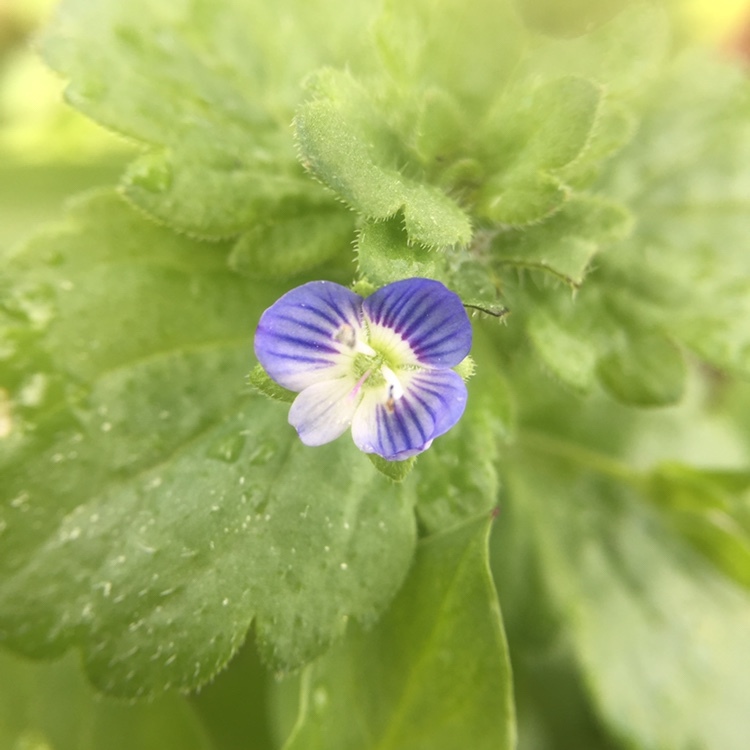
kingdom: Plantae
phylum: Tracheophyta
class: Magnoliopsida
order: Lamiales
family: Plantaginaceae
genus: Veronica
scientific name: Veronica persica
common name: Common field-speedwell
